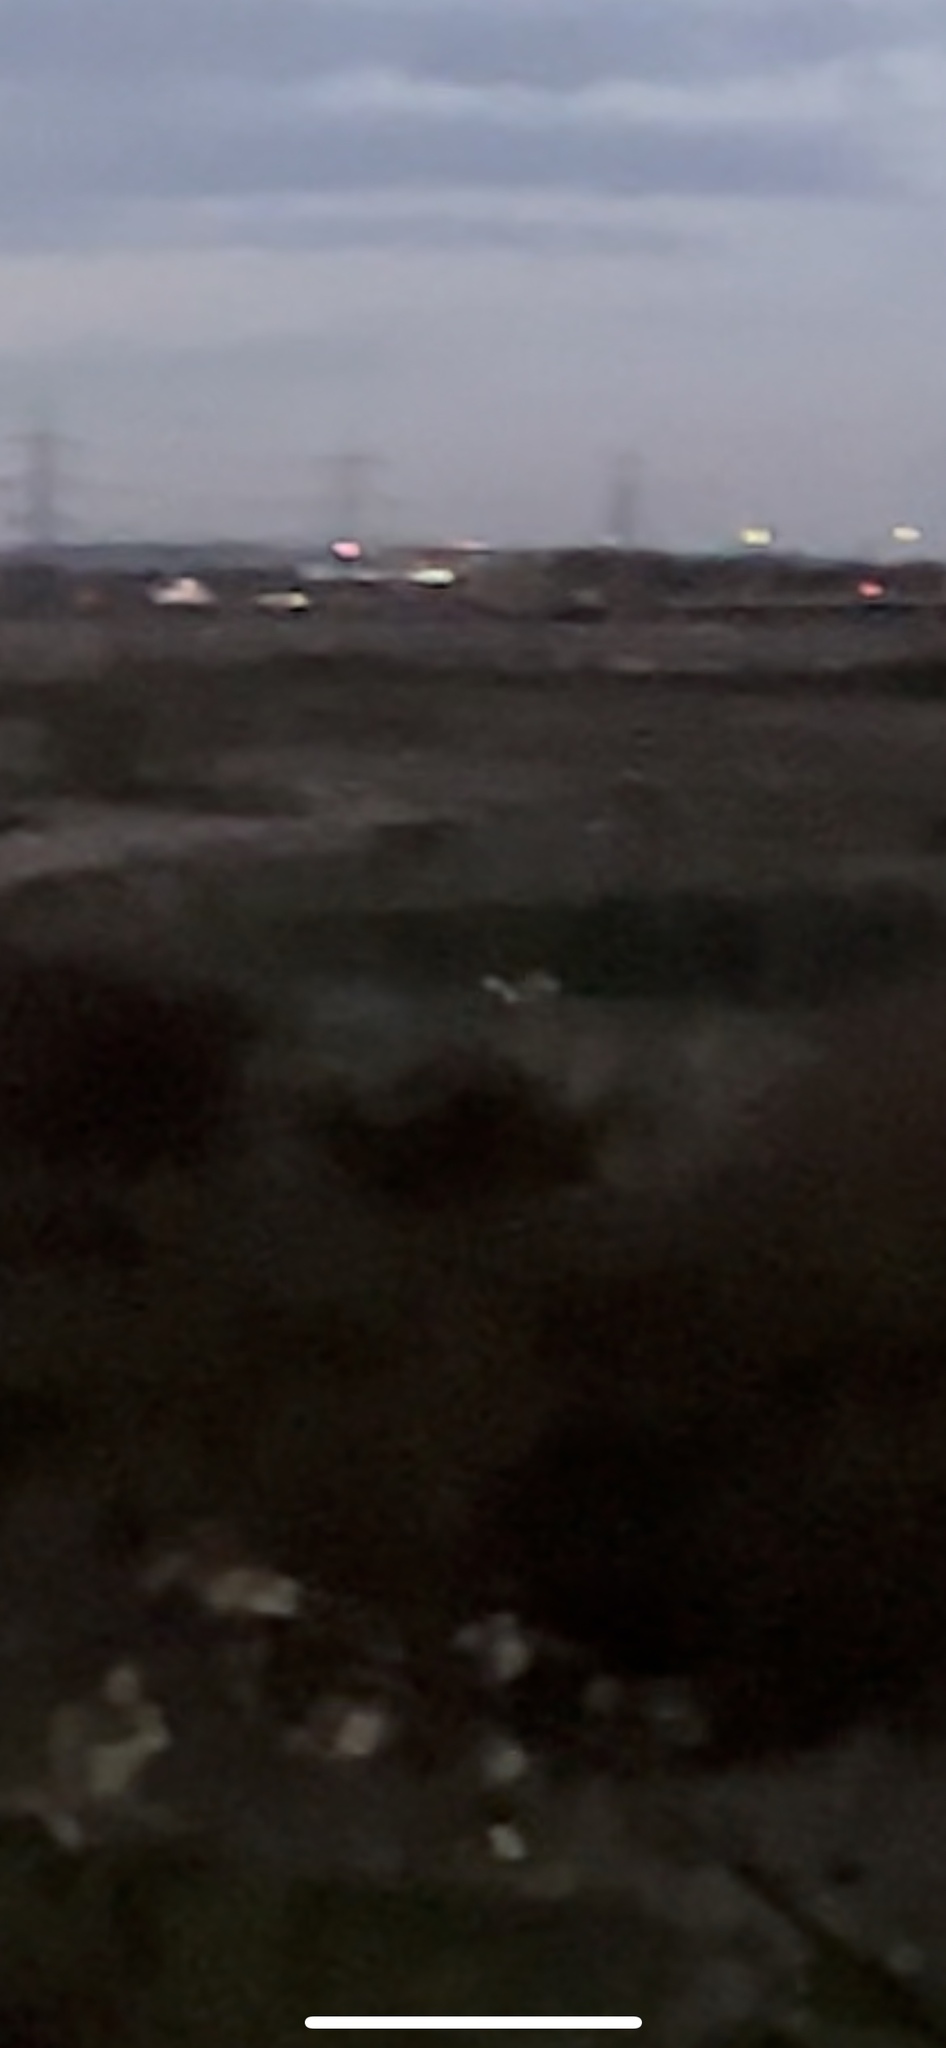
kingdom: Animalia
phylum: Chordata
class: Aves
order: Strigiformes
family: Tytonidae
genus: Tyto
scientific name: Tyto alba
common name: Barn owl
